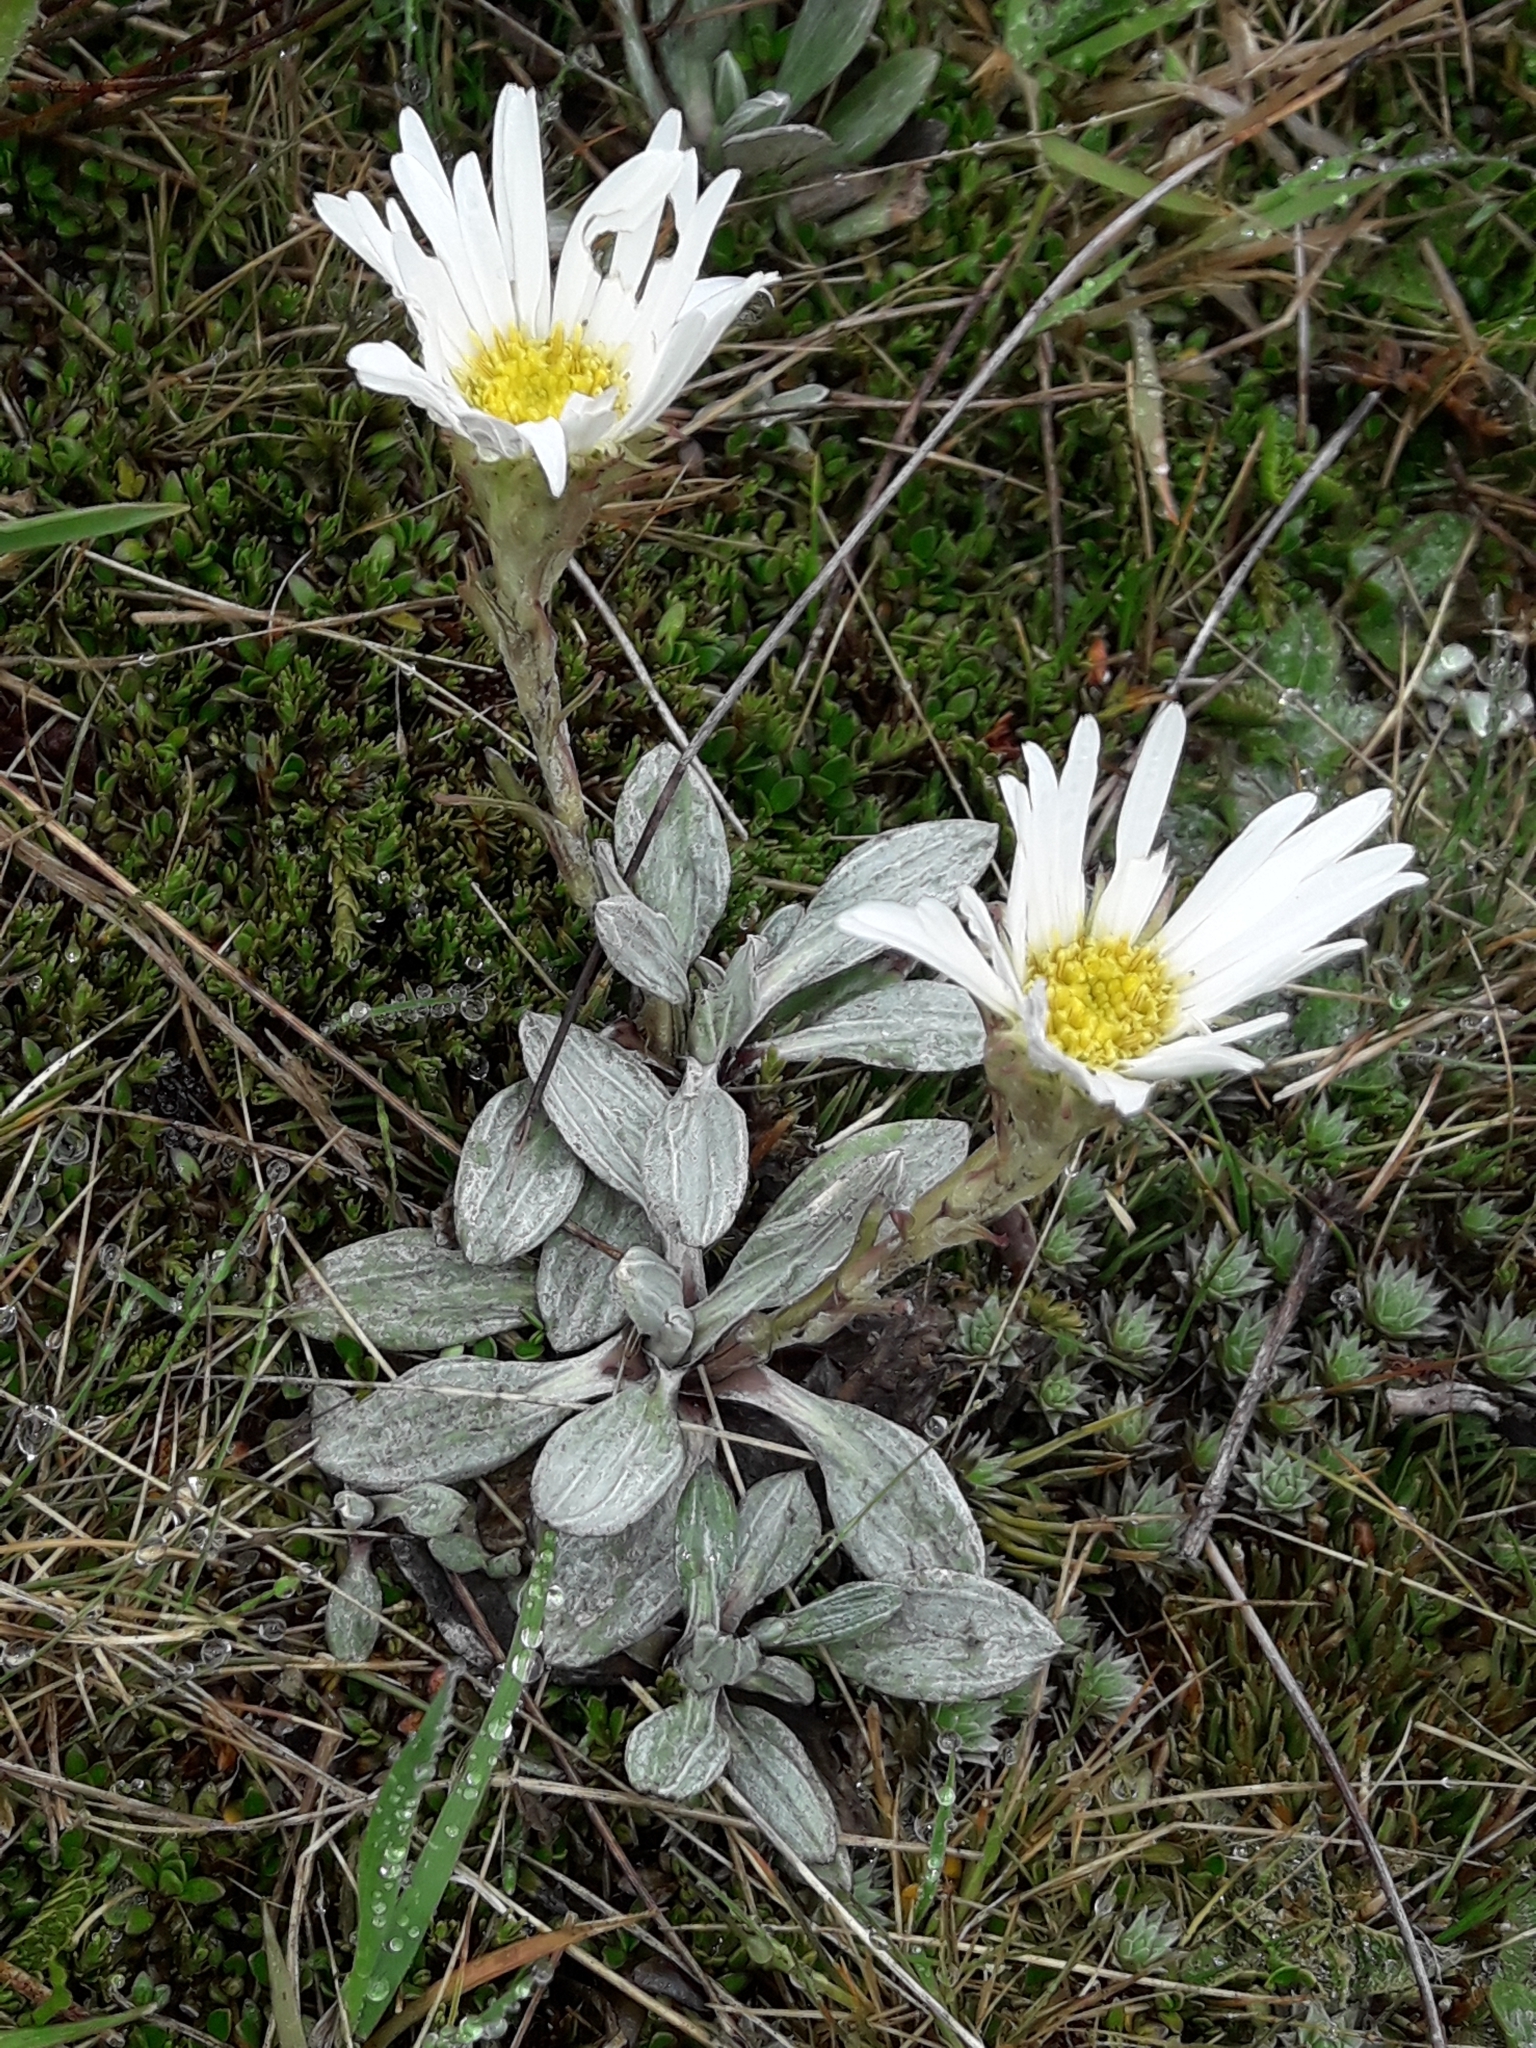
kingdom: Plantae
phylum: Tracheophyta
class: Magnoliopsida
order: Asterales
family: Asteraceae
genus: Celmisia
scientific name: Celmisia haastii
